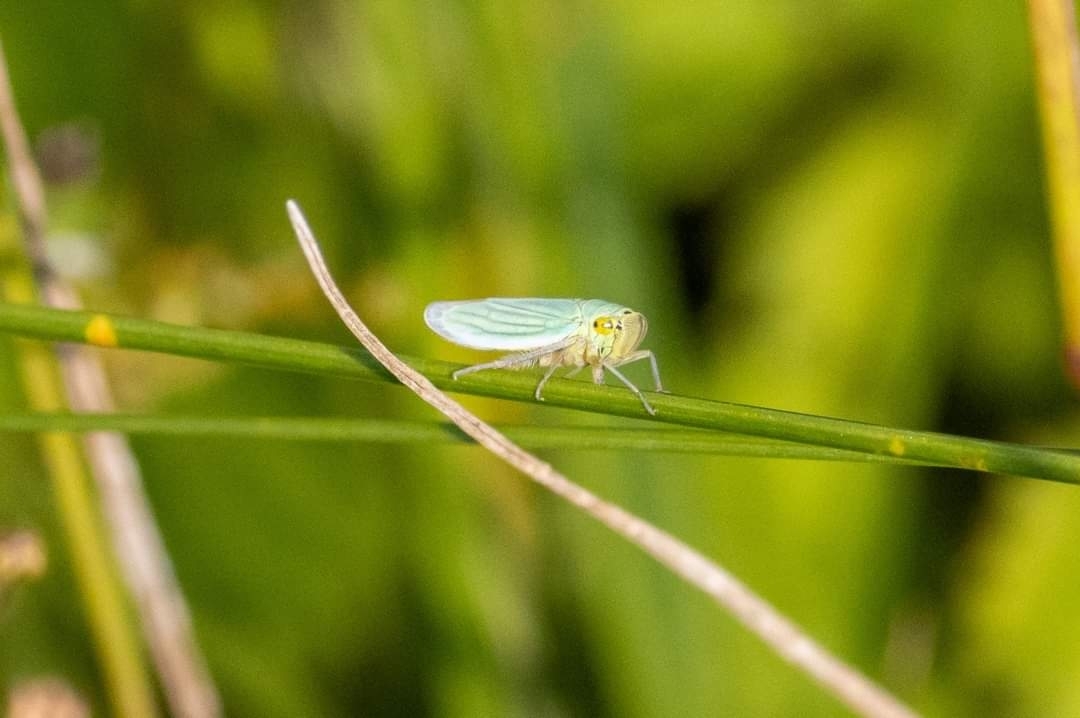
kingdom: Animalia
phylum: Arthropoda
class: Insecta
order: Hemiptera
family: Cicadellidae
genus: Cicadella
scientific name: Cicadella viridis
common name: Leafhopper
